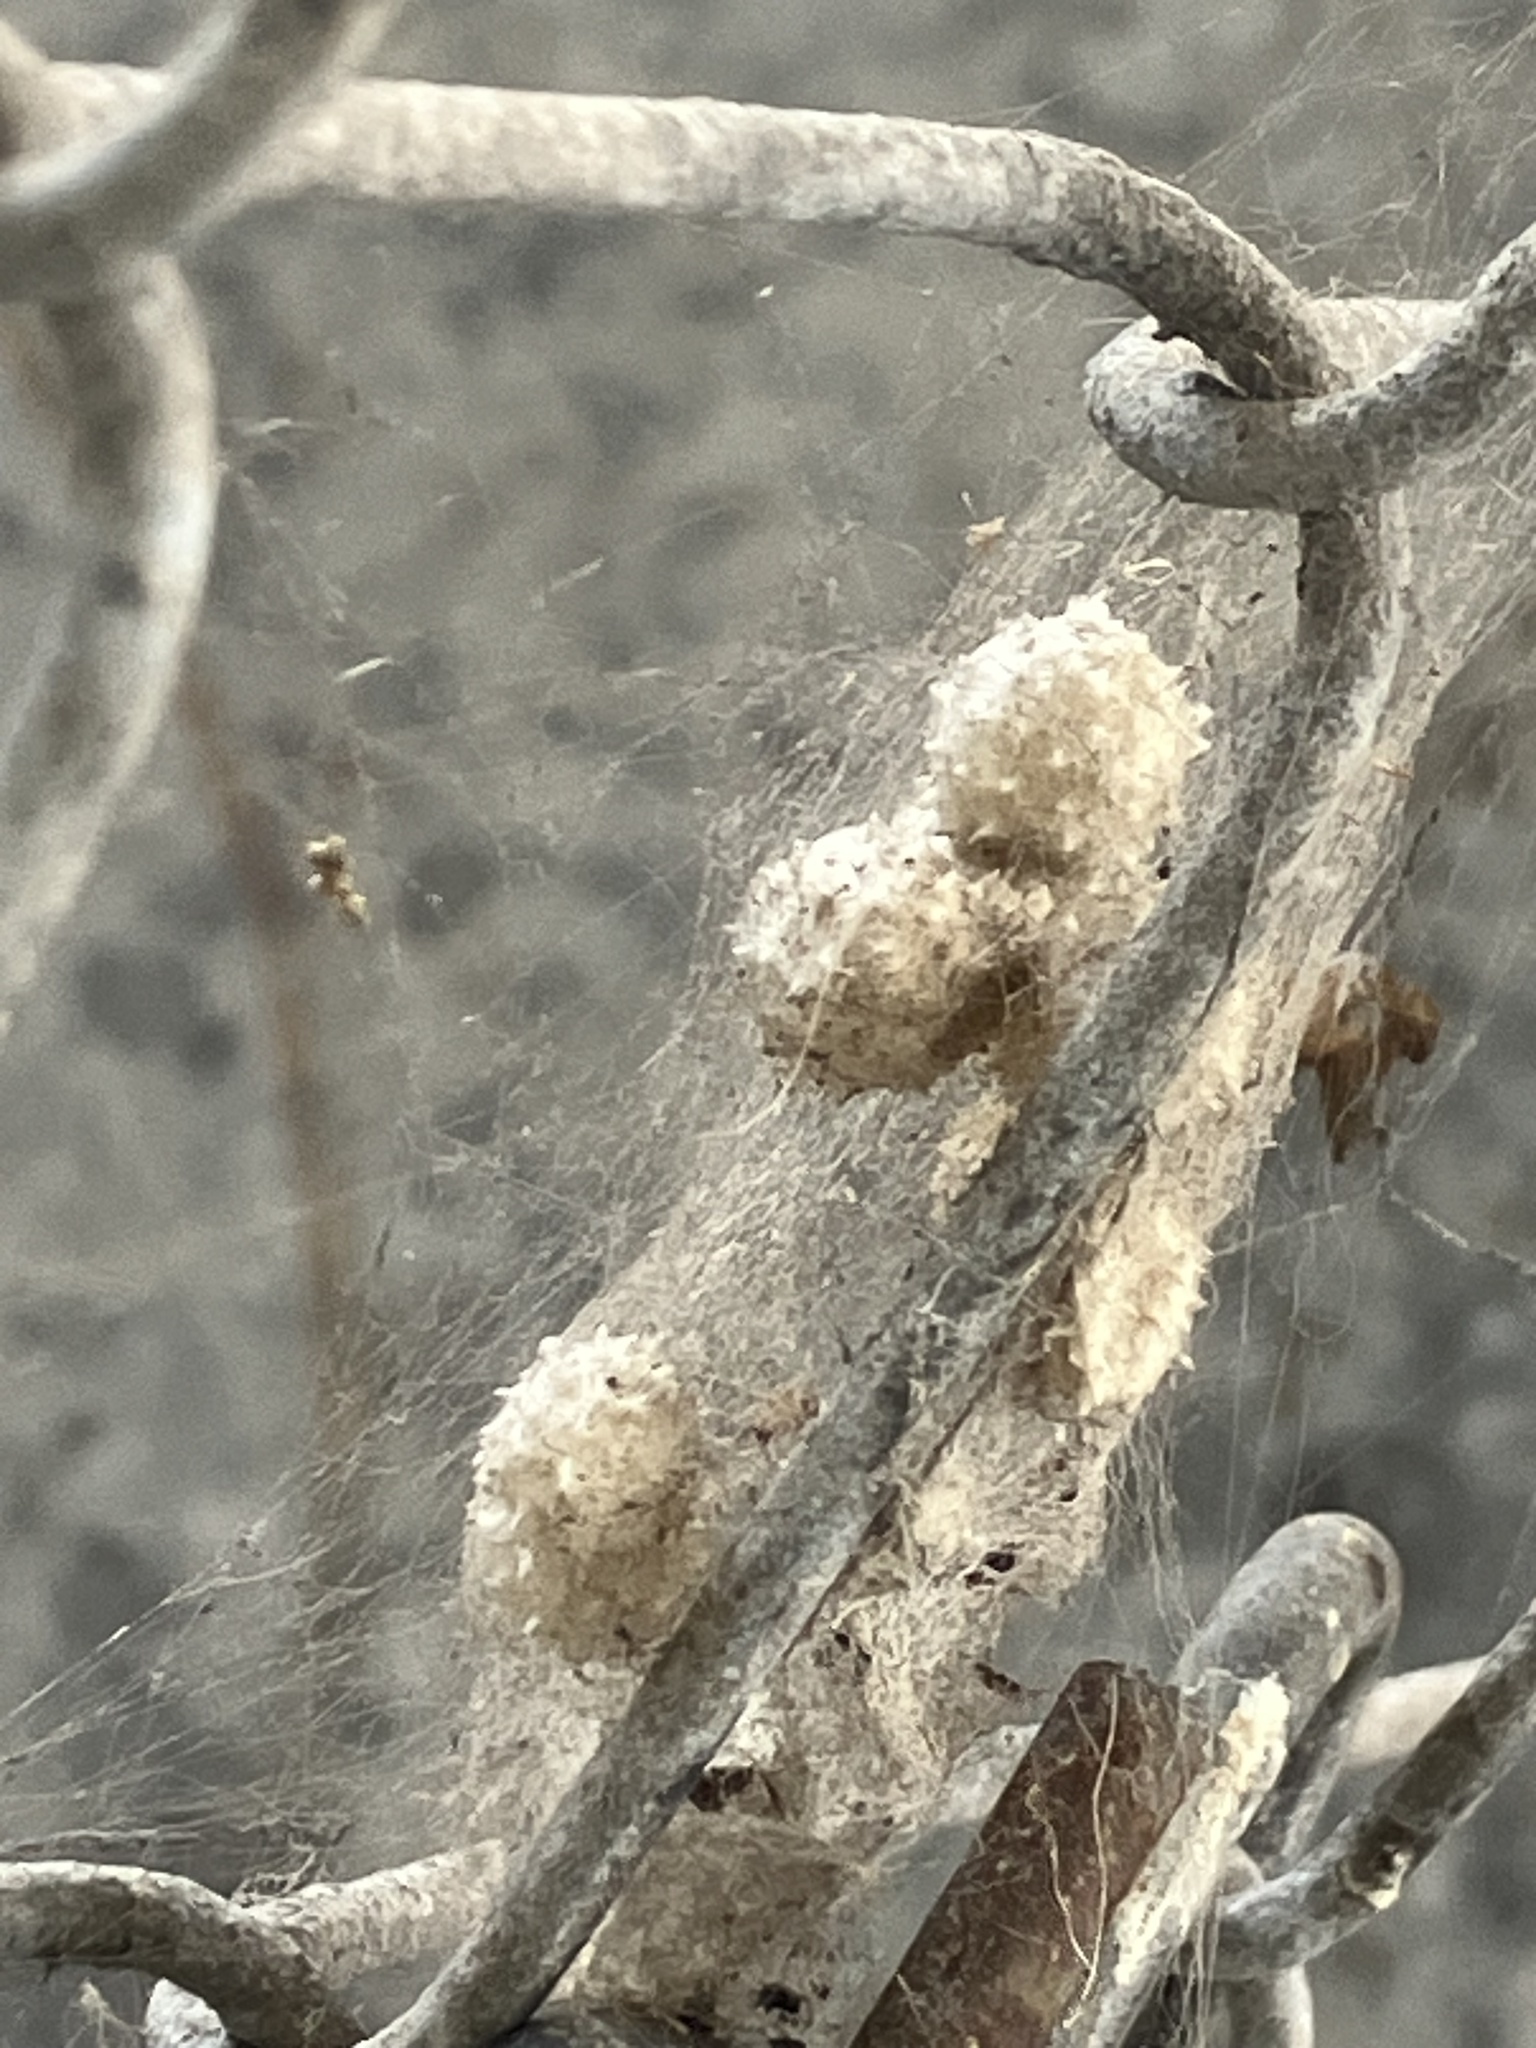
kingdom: Animalia
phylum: Arthropoda
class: Arachnida
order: Araneae
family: Theridiidae
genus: Latrodectus
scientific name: Latrodectus geometricus
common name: Brown widow spider
